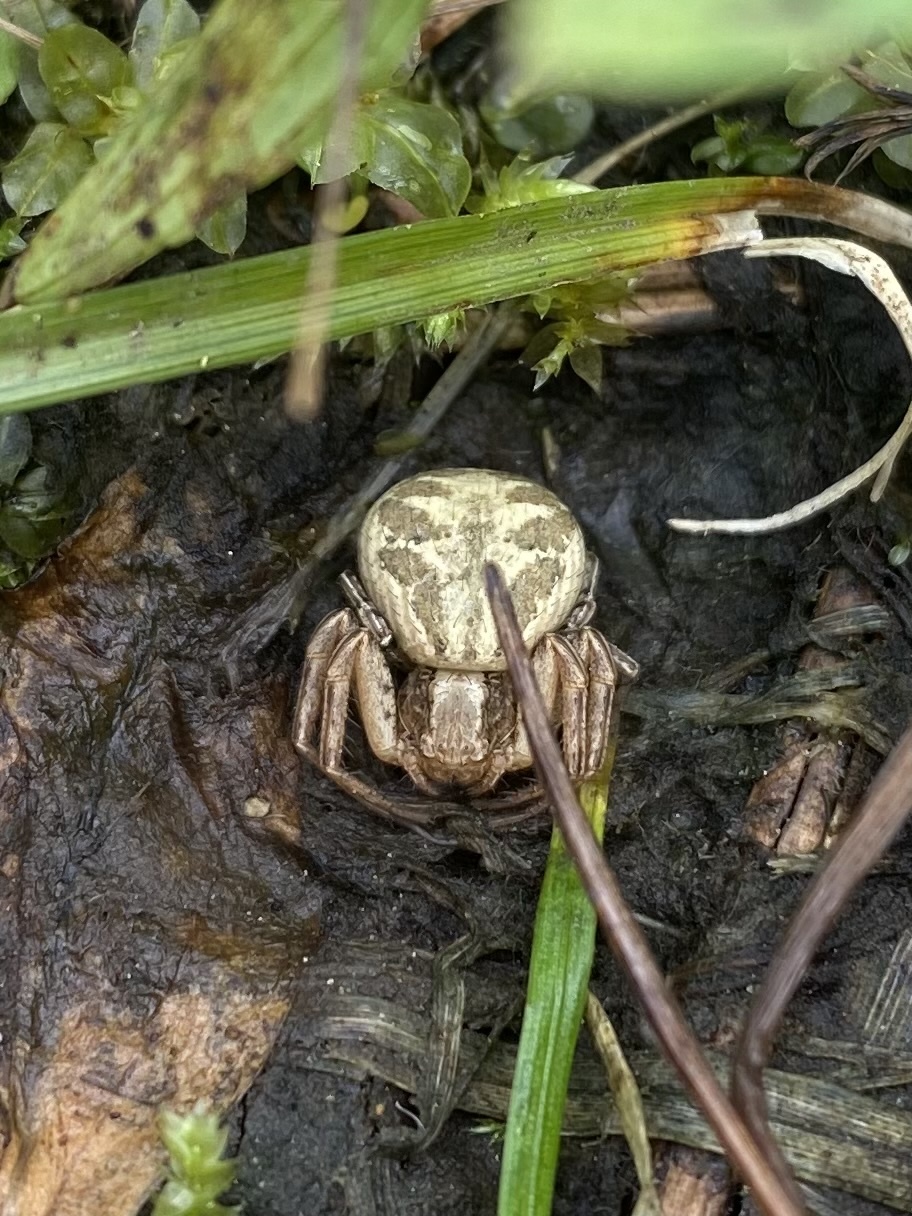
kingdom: Animalia
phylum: Arthropoda
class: Arachnida
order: Araneae
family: Thomisidae
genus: Xysticus
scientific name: Xysticus
